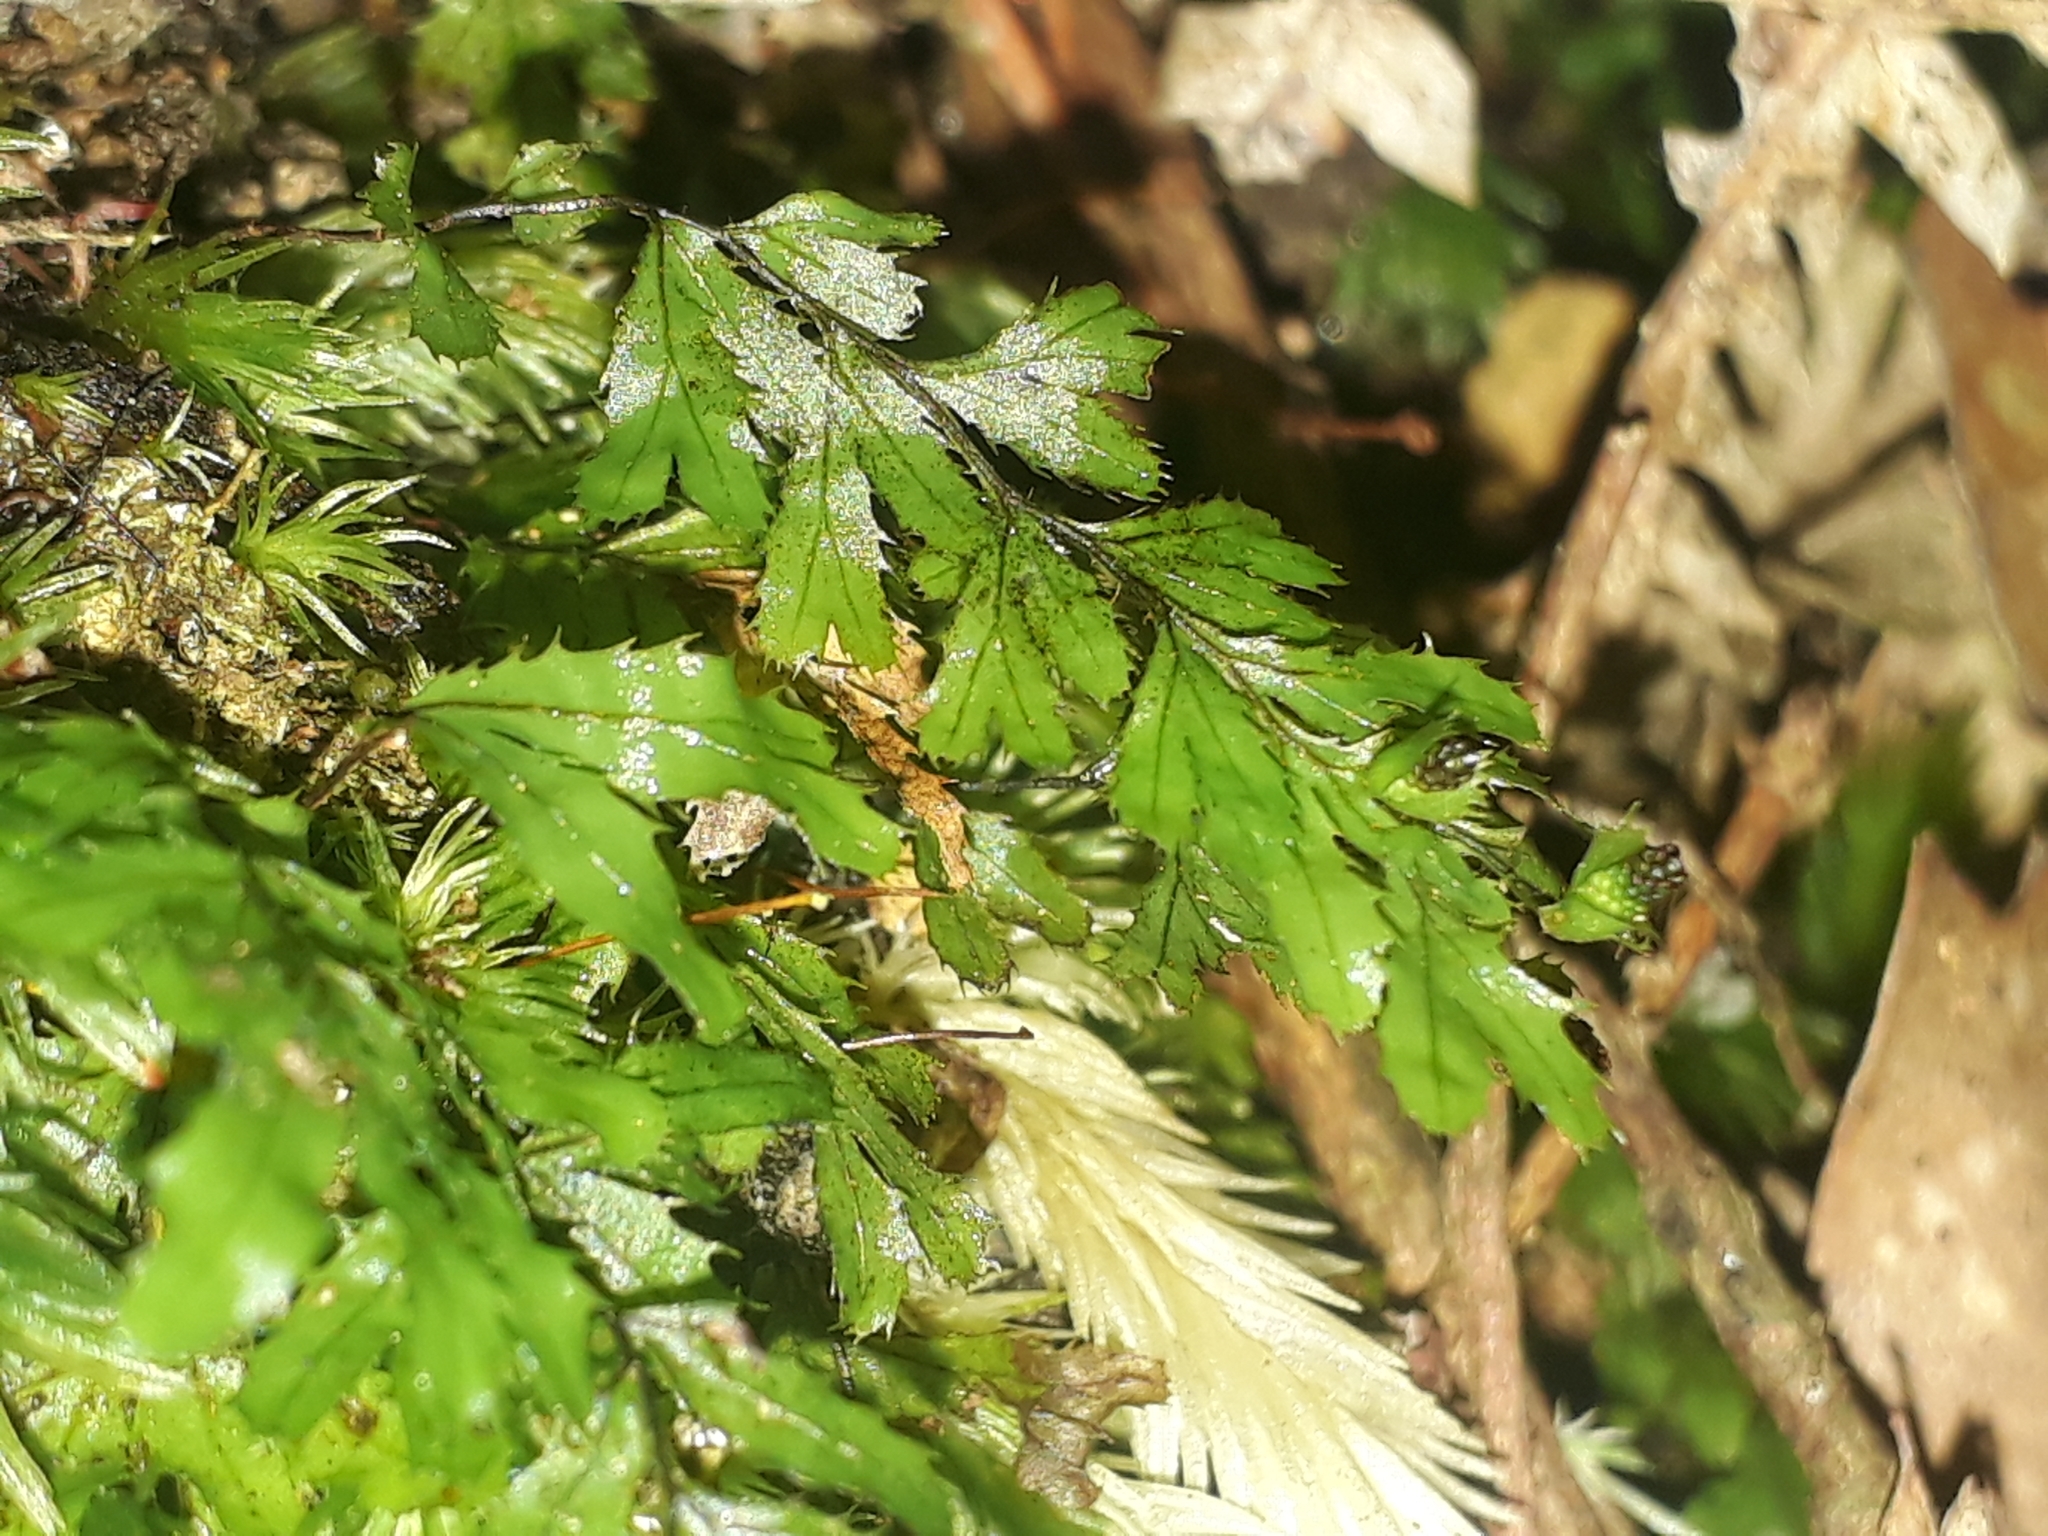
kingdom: Plantae
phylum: Tracheophyta
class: Polypodiopsida
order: Hymenophyllales
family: Hymenophyllaceae
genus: Hymenophyllum
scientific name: Hymenophyllum revolutum
